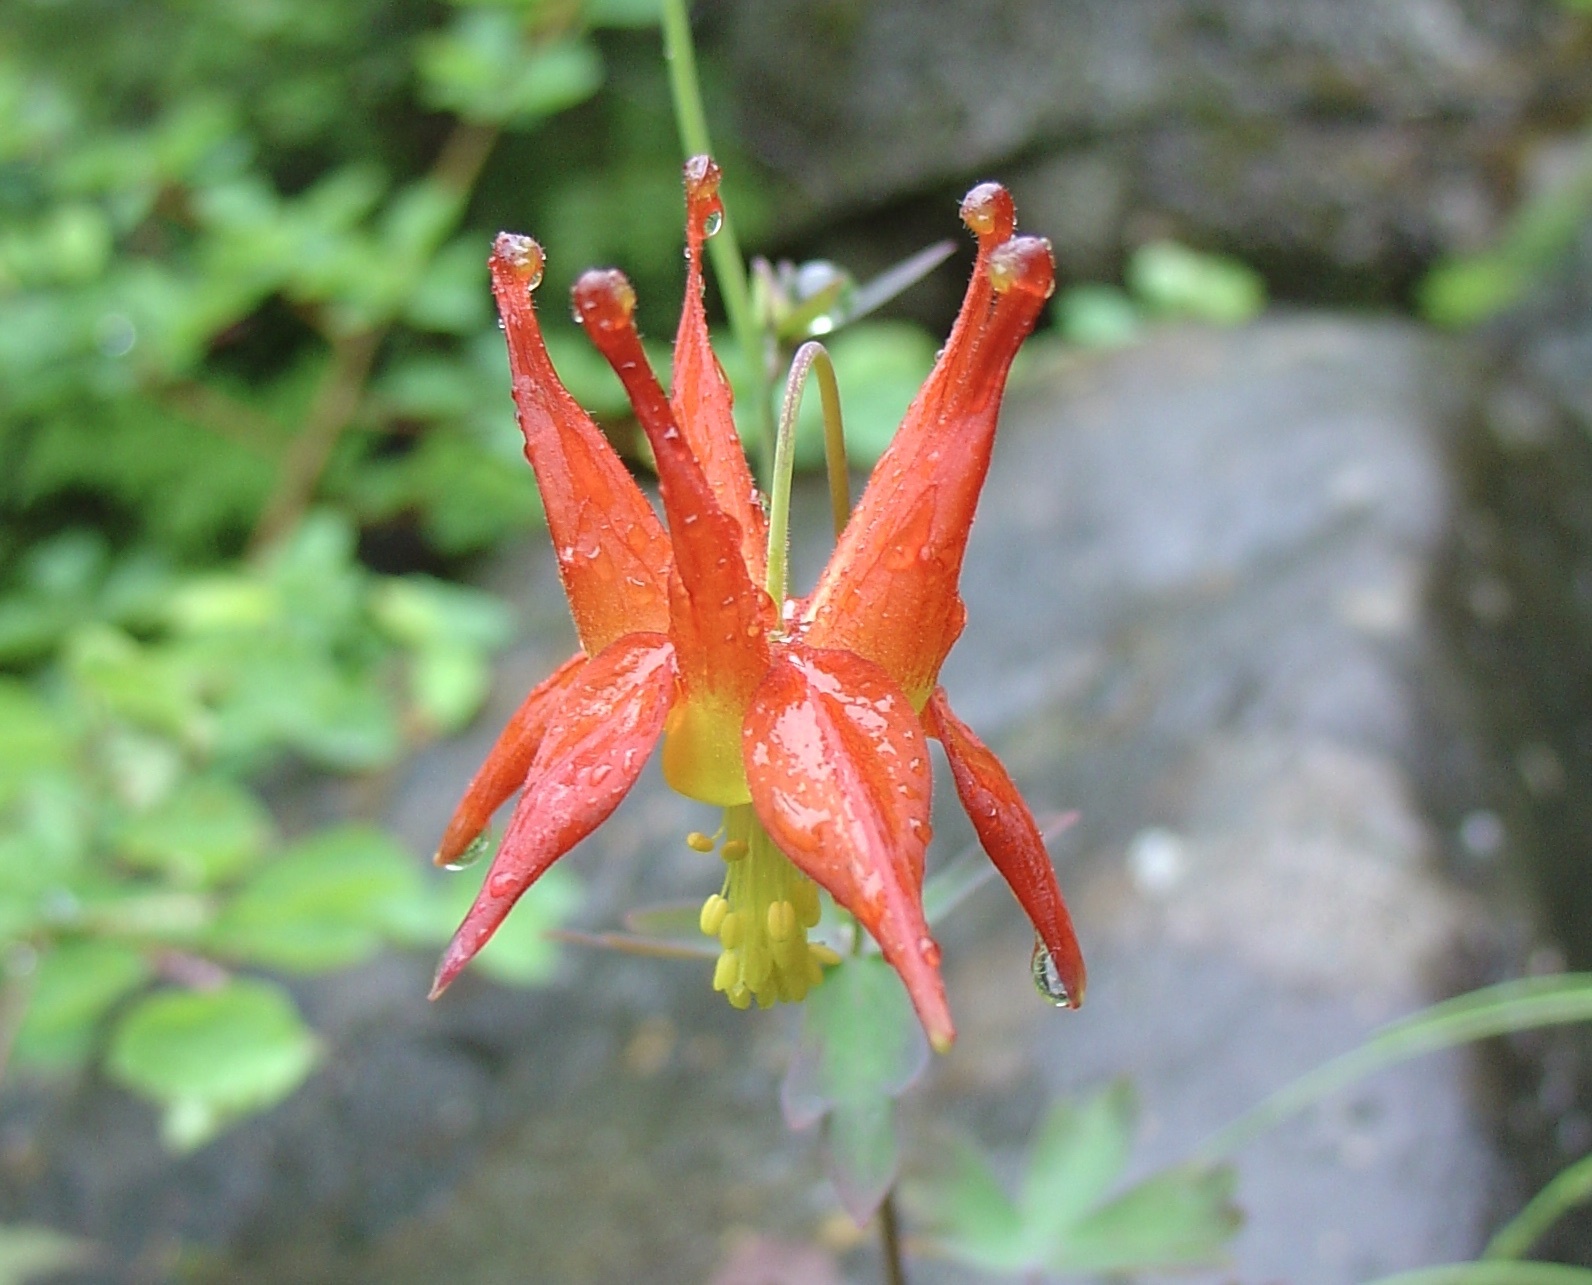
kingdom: Plantae
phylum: Tracheophyta
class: Magnoliopsida
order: Ranunculales
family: Ranunculaceae
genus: Aquilegia
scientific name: Aquilegia formosa
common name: Sitka columbine
